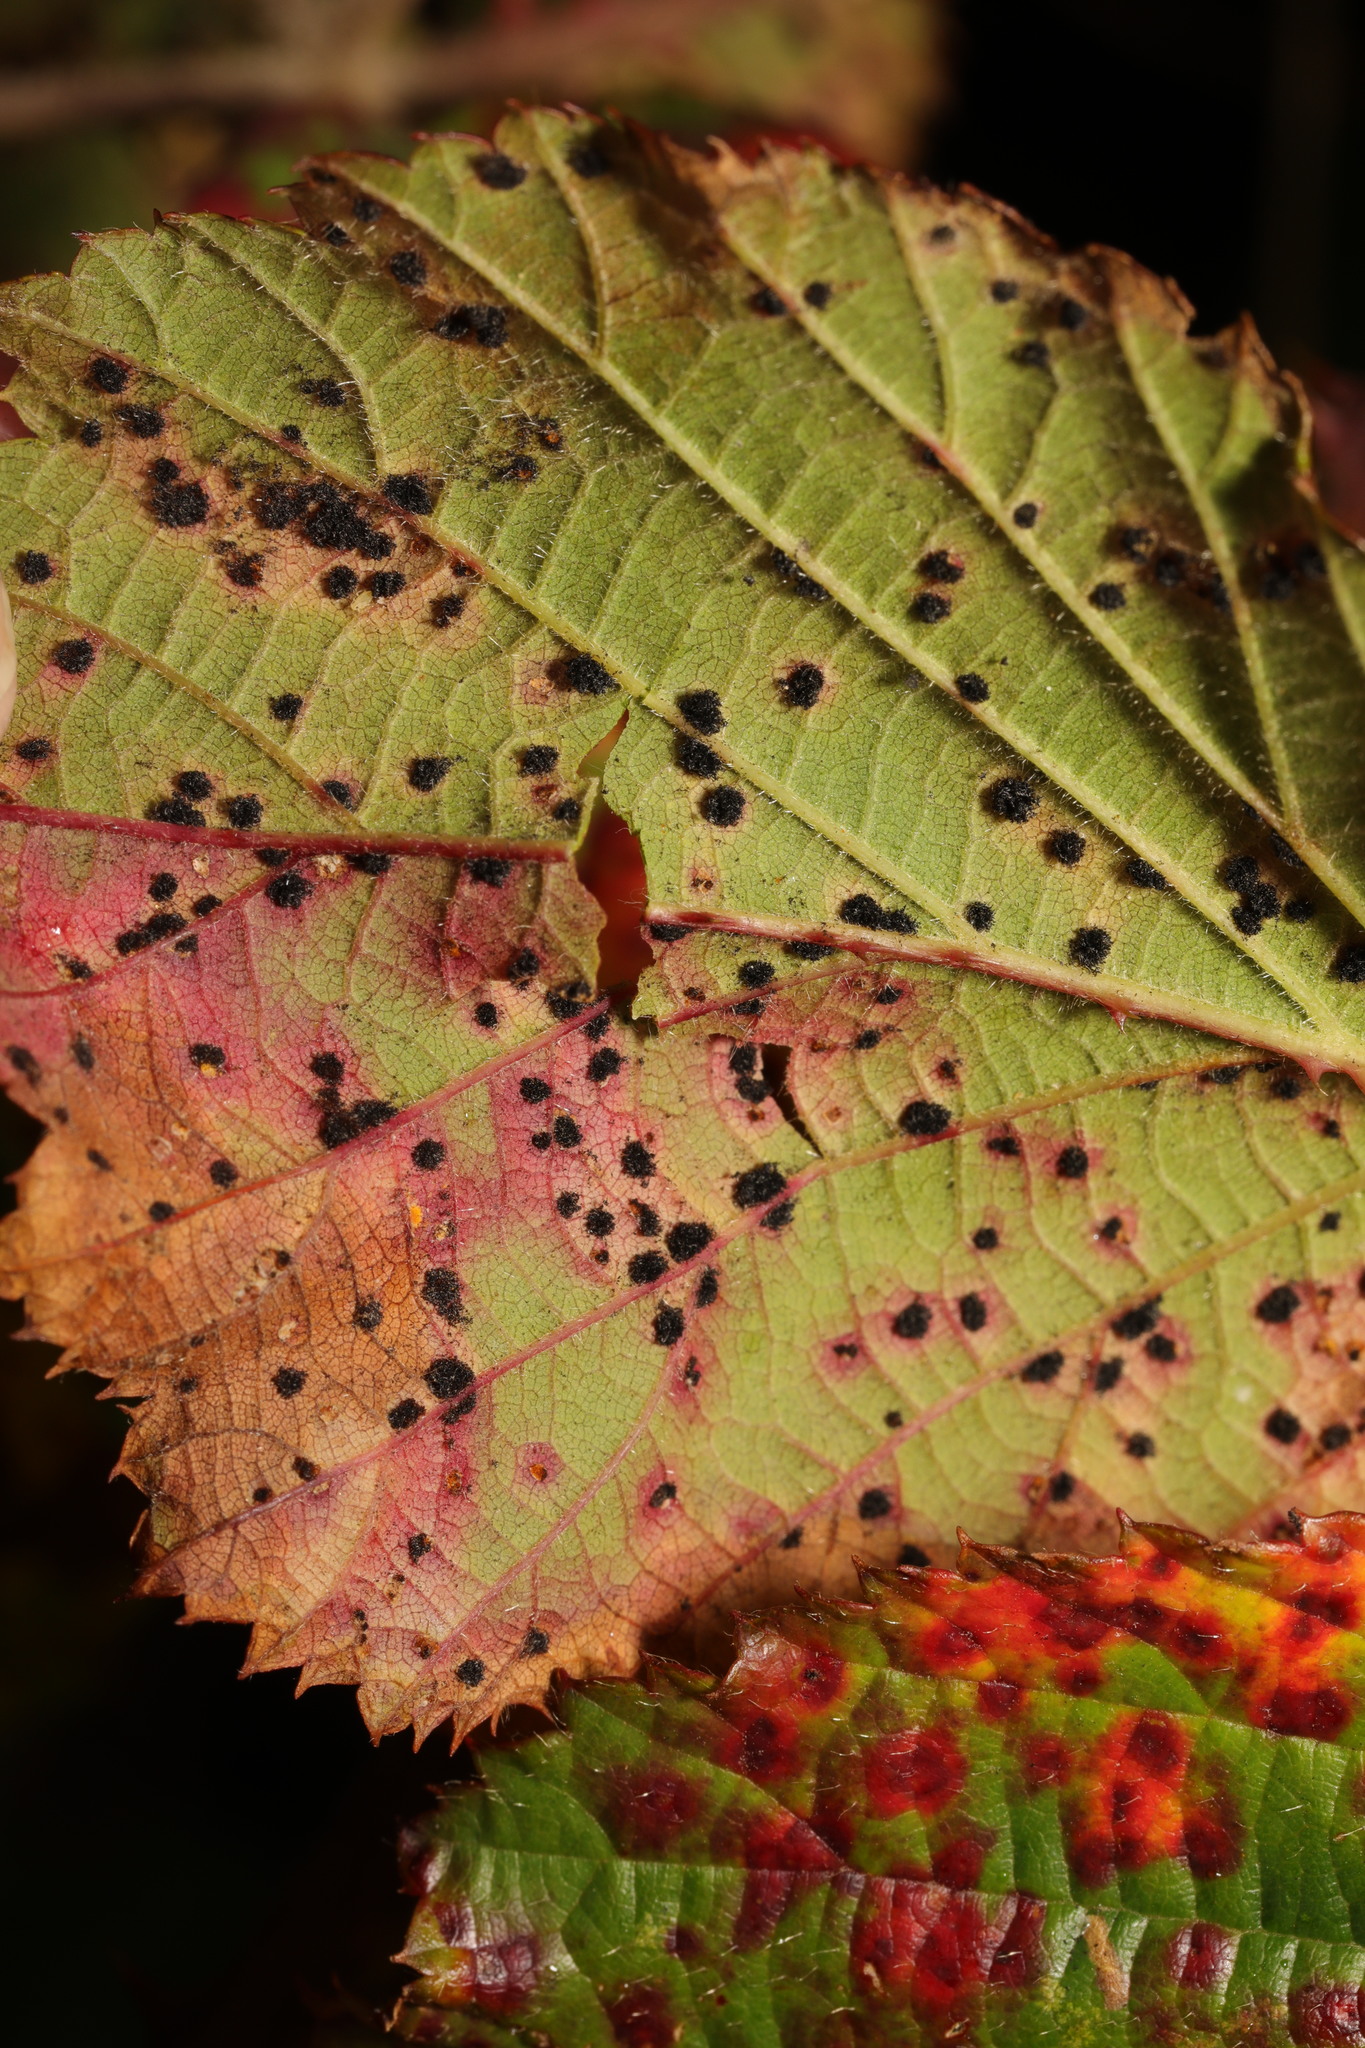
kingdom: Fungi
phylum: Basidiomycota
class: Pucciniomycetes
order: Pucciniales
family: Phragmidiaceae
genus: Phragmidium
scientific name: Phragmidium violaceum
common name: Violet bramble rust
